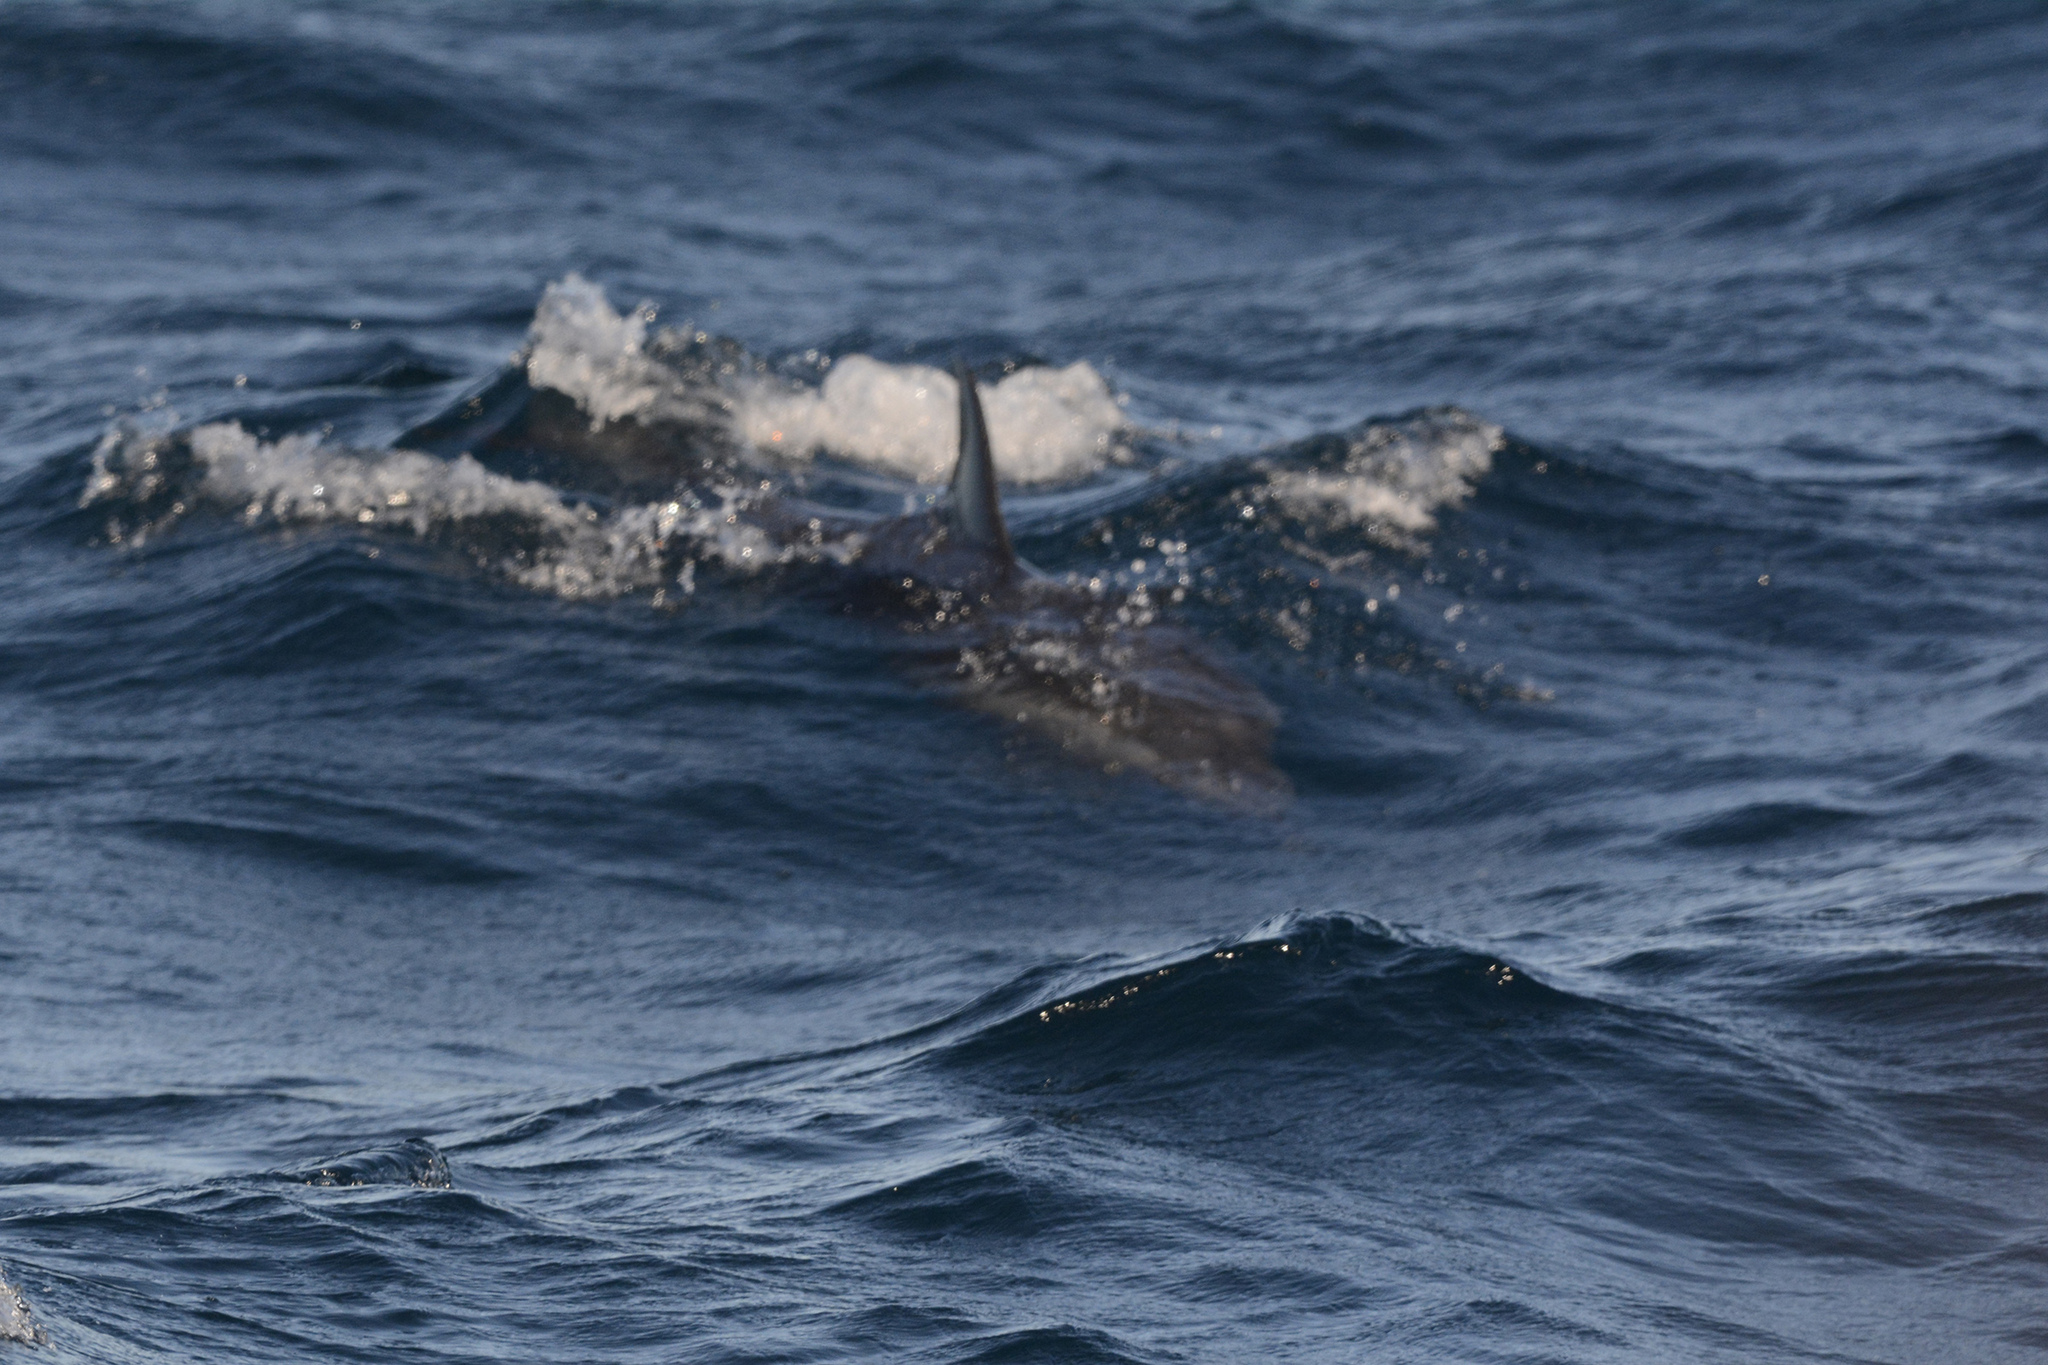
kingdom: Animalia
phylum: Chordata
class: Mammalia
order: Cetacea
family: Delphinidae
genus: Delphinus
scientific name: Delphinus delphis
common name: Common dolphin
